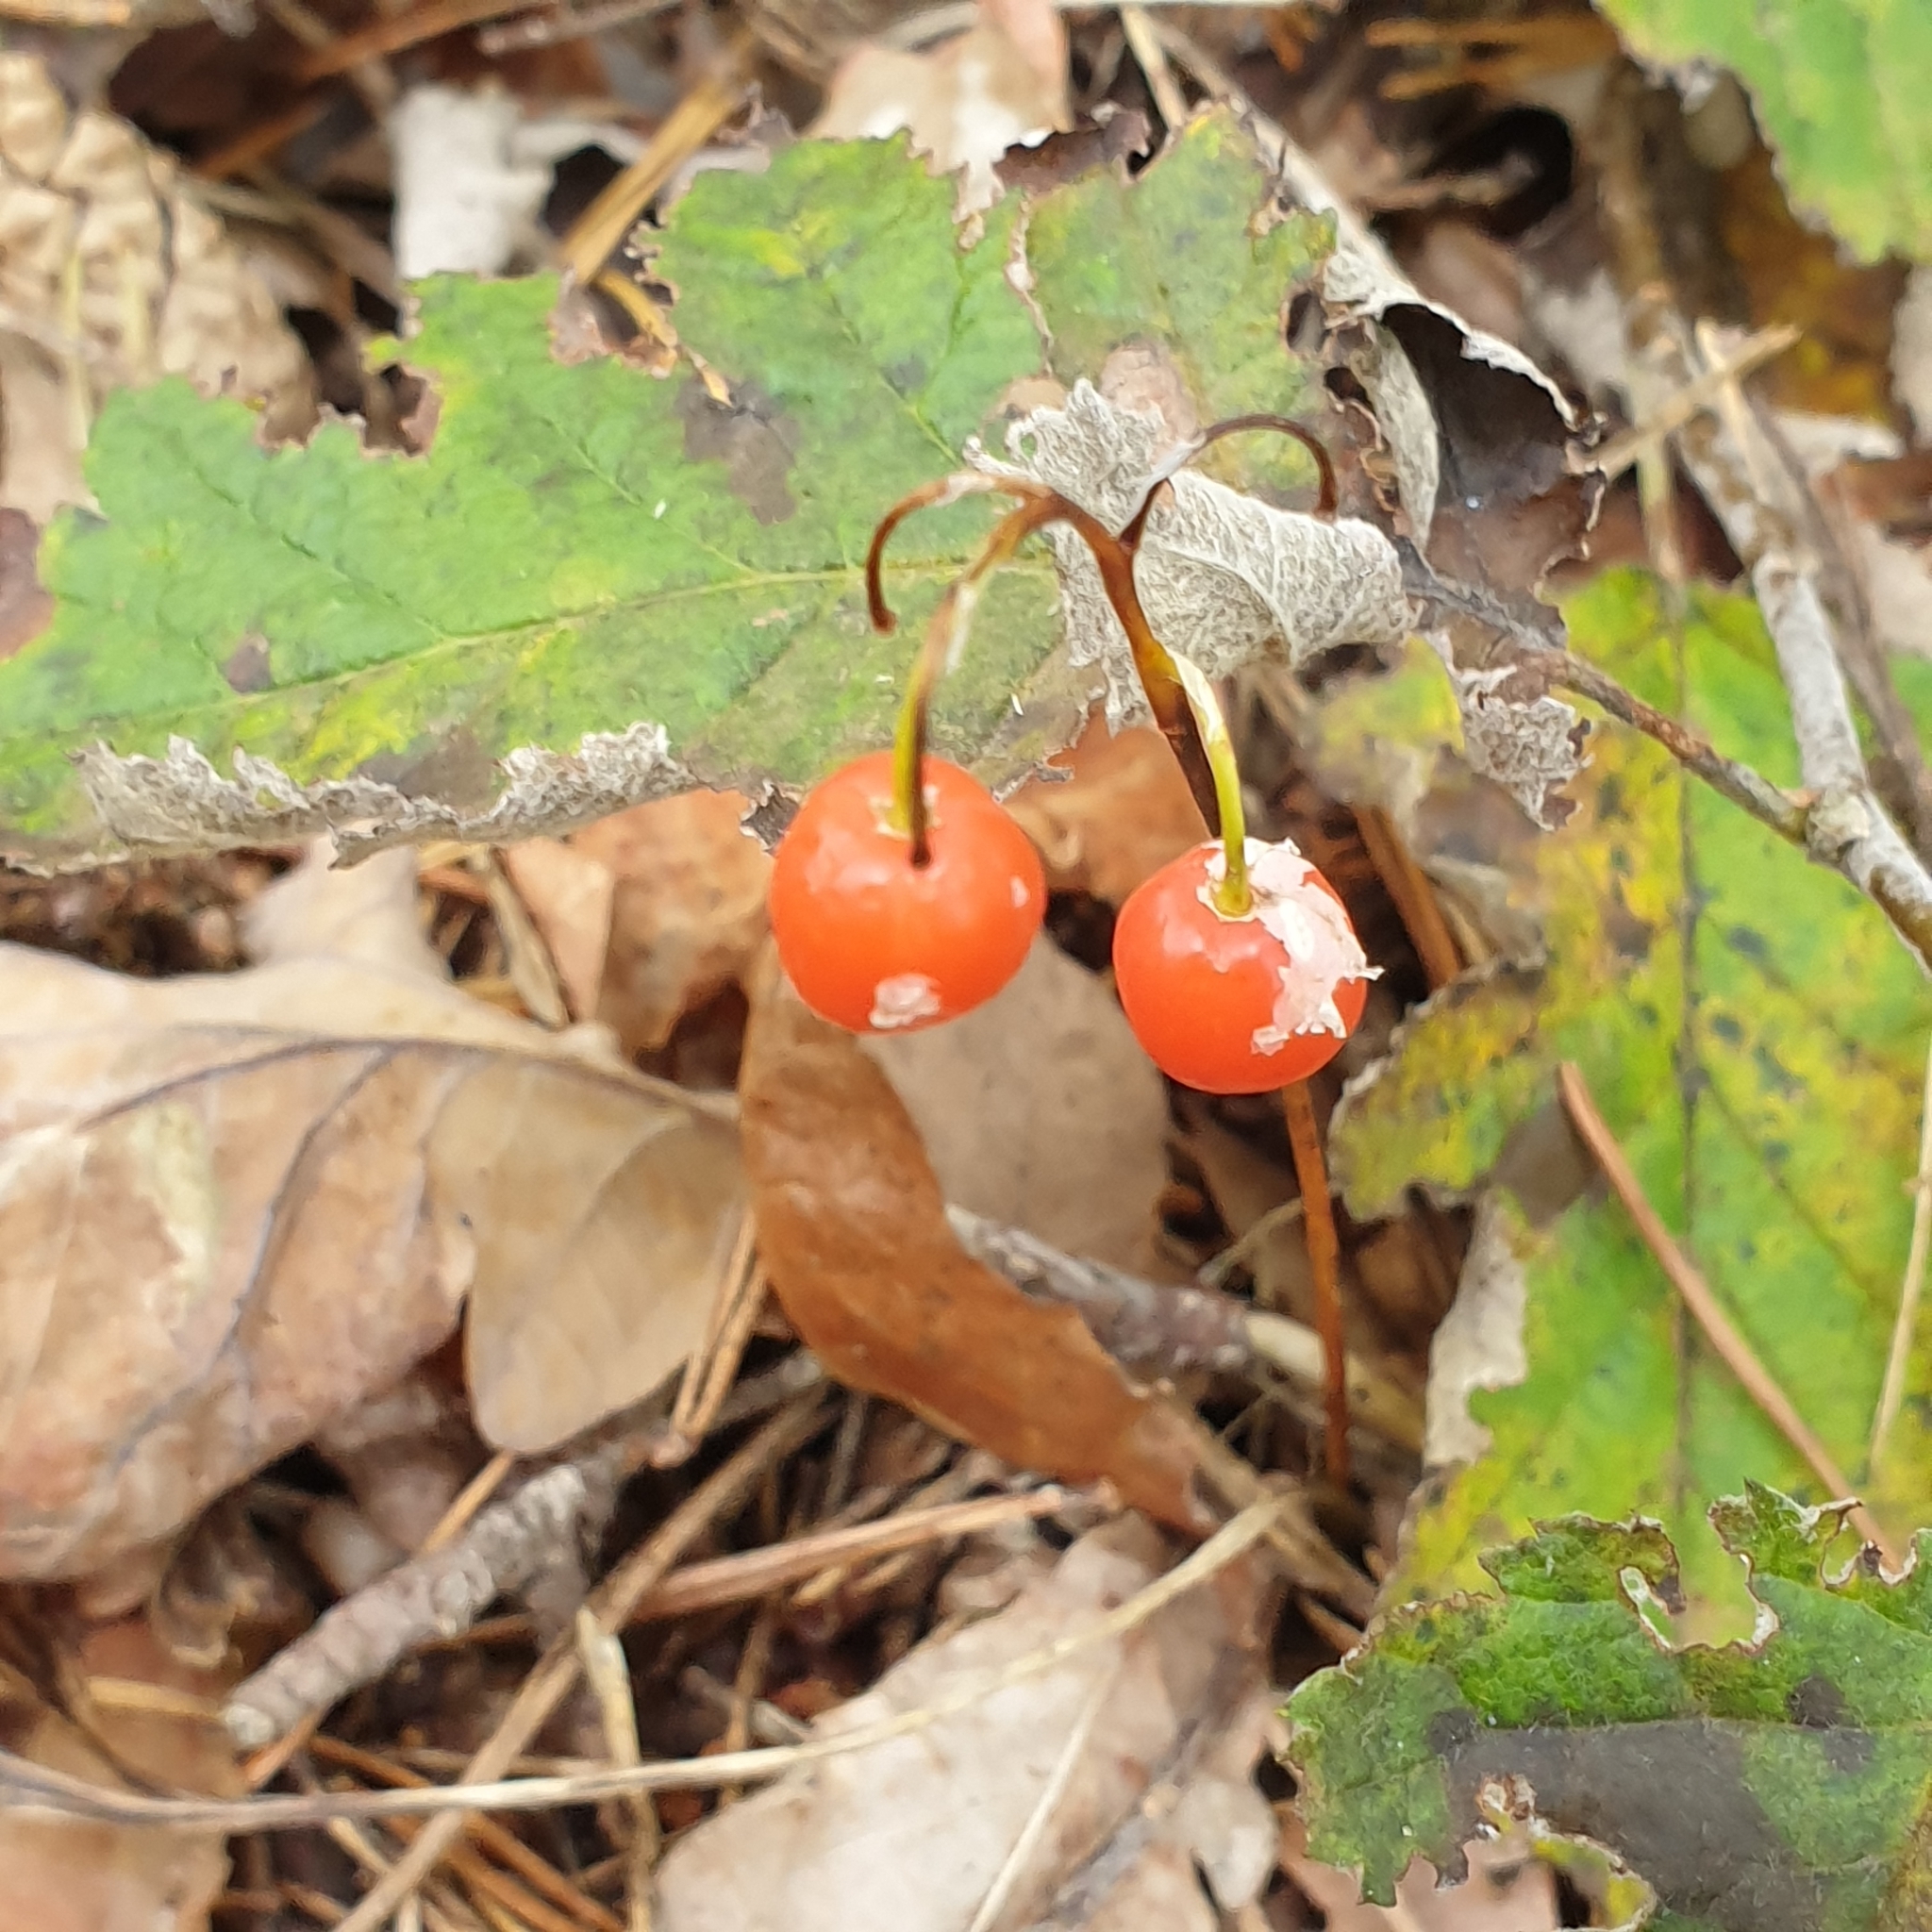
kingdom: Plantae
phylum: Tracheophyta
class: Liliopsida
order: Asparagales
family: Asparagaceae
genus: Convallaria
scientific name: Convallaria majalis
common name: Lily-of-the-valley
